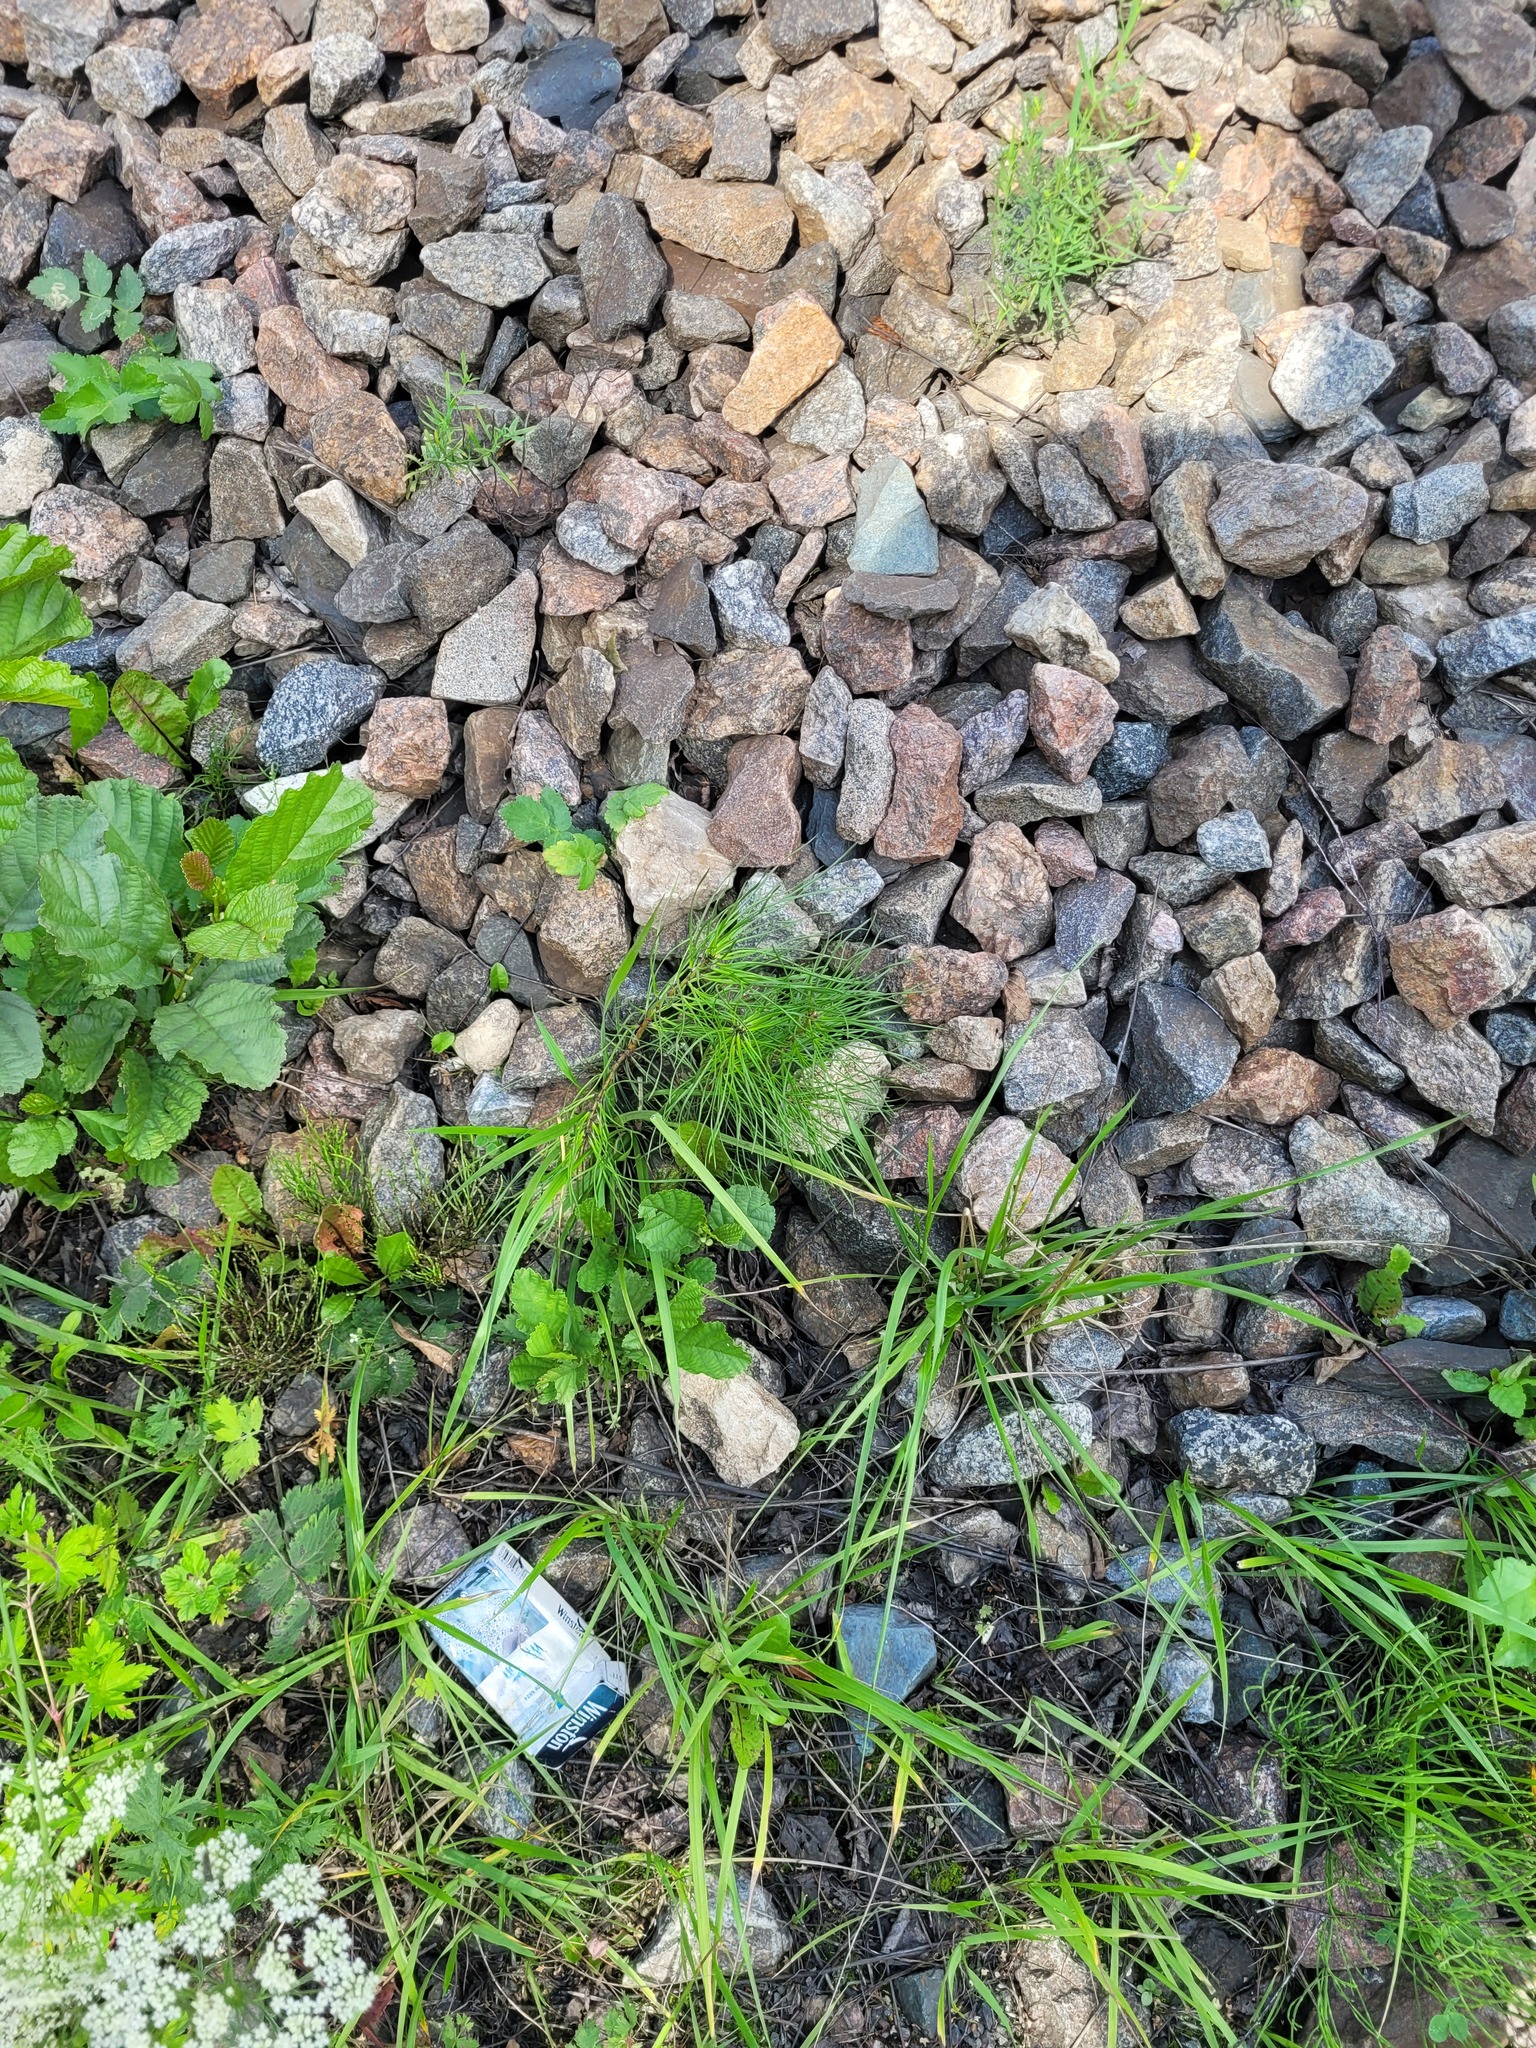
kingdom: Plantae
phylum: Tracheophyta
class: Pinopsida
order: Pinales
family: Pinaceae
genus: Pinus
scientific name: Pinus sylvestris
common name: Scots pine
